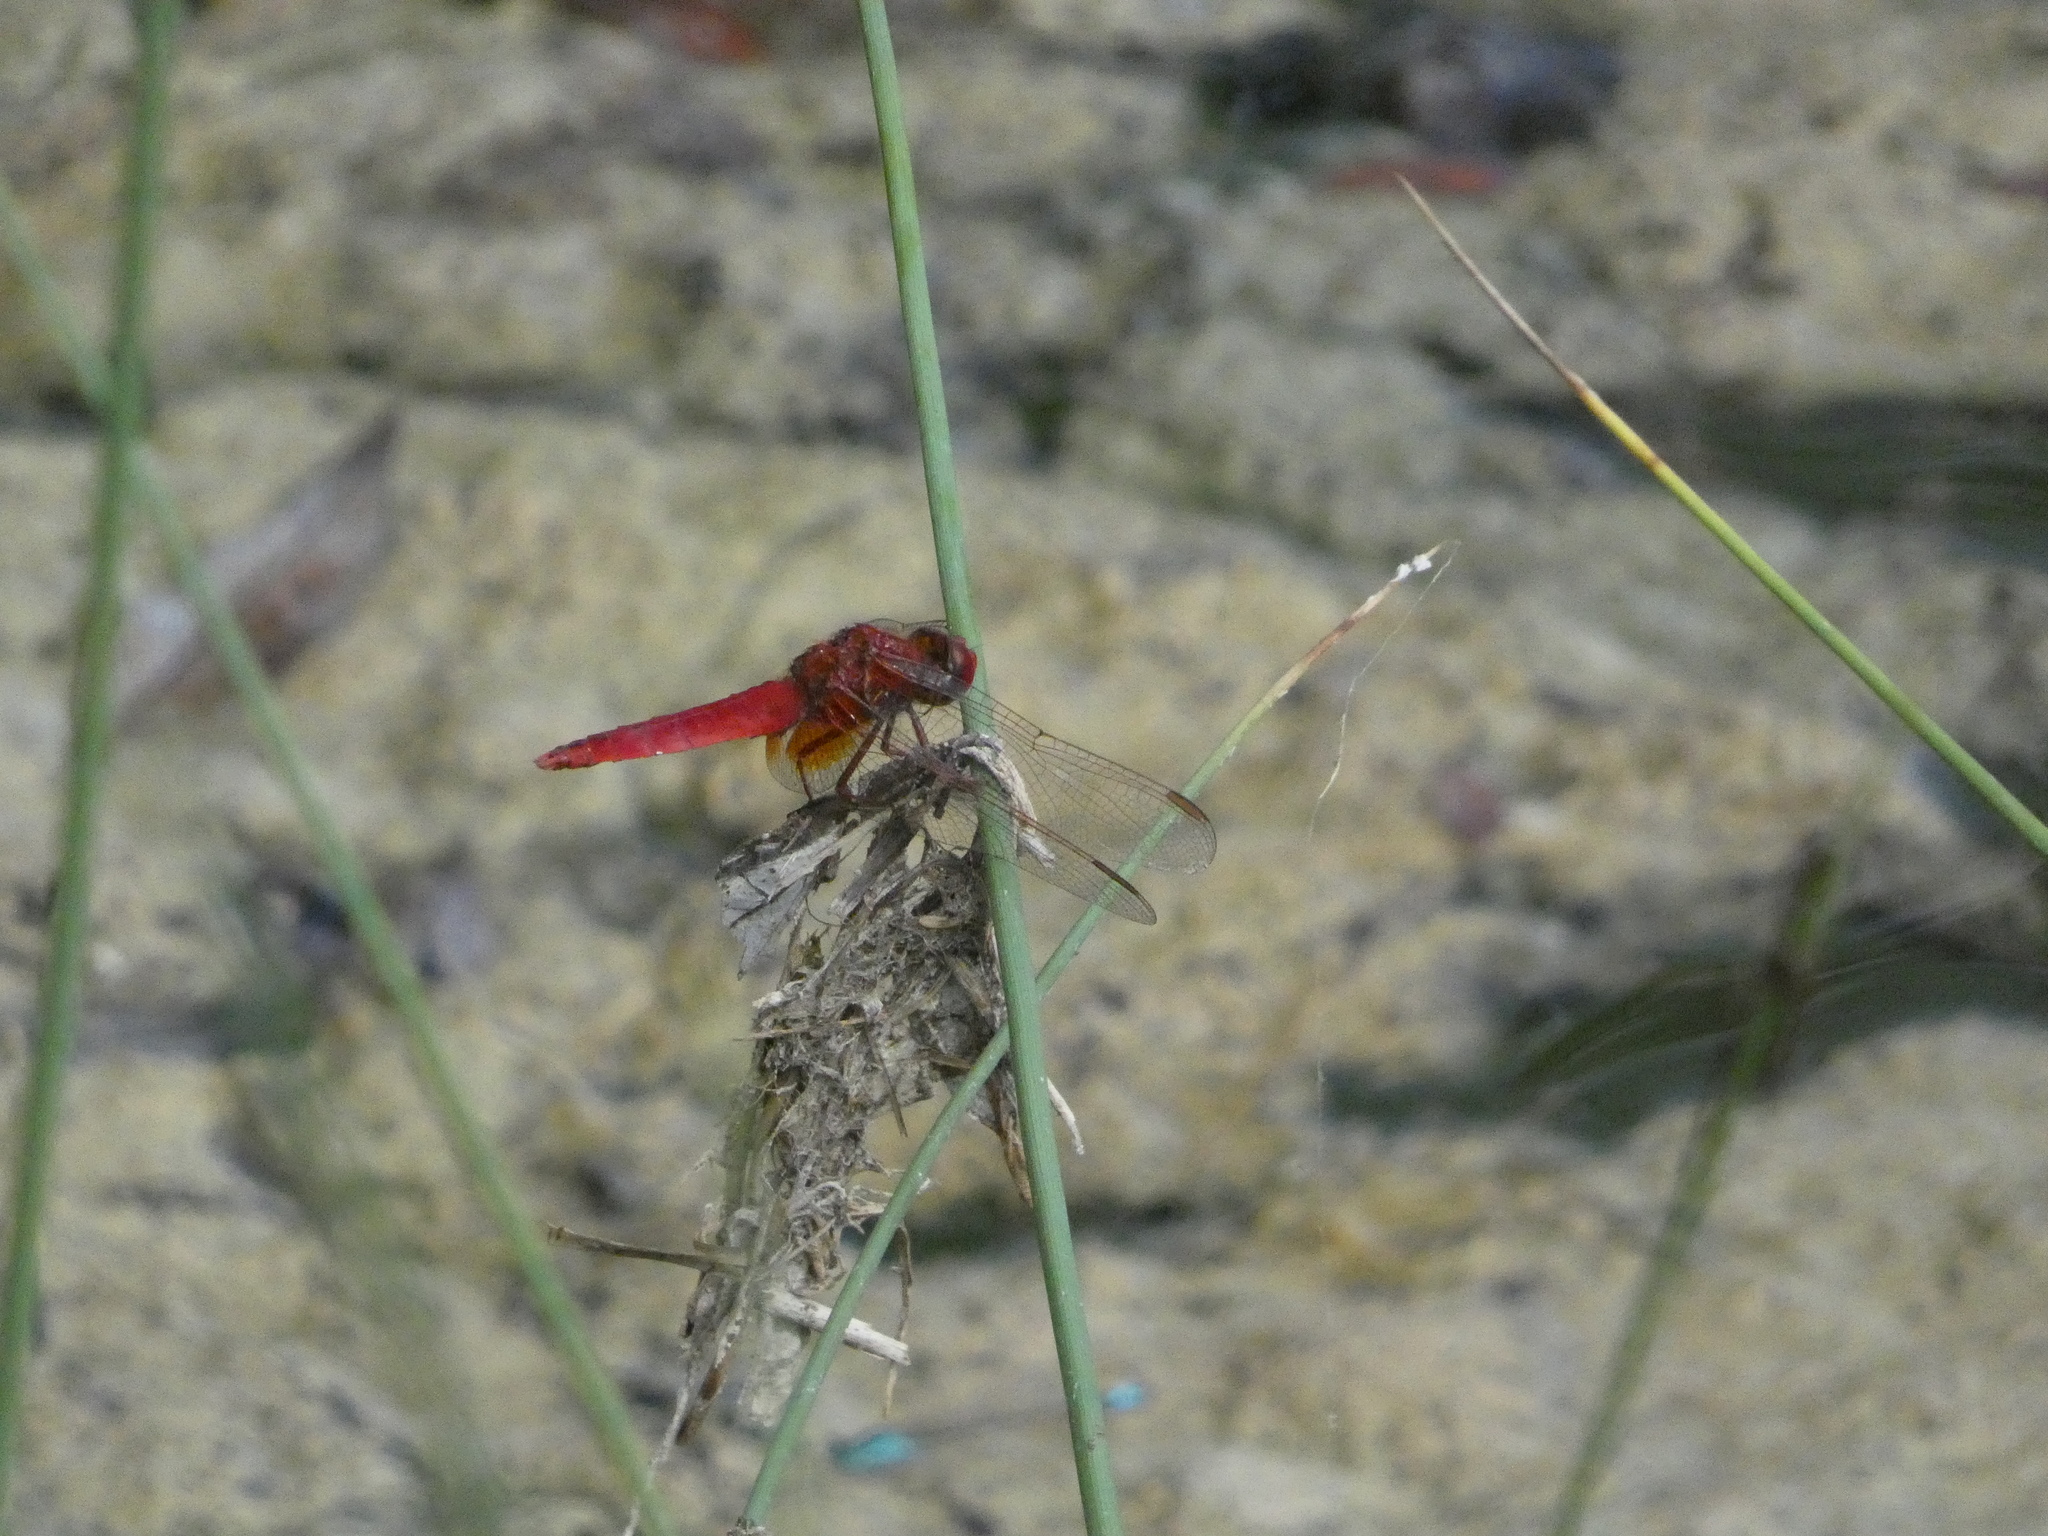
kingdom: Animalia
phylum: Arthropoda
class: Insecta
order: Odonata
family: Libellulidae
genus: Crocothemis
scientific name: Crocothemis erythraea
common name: Scarlet dragonfly
